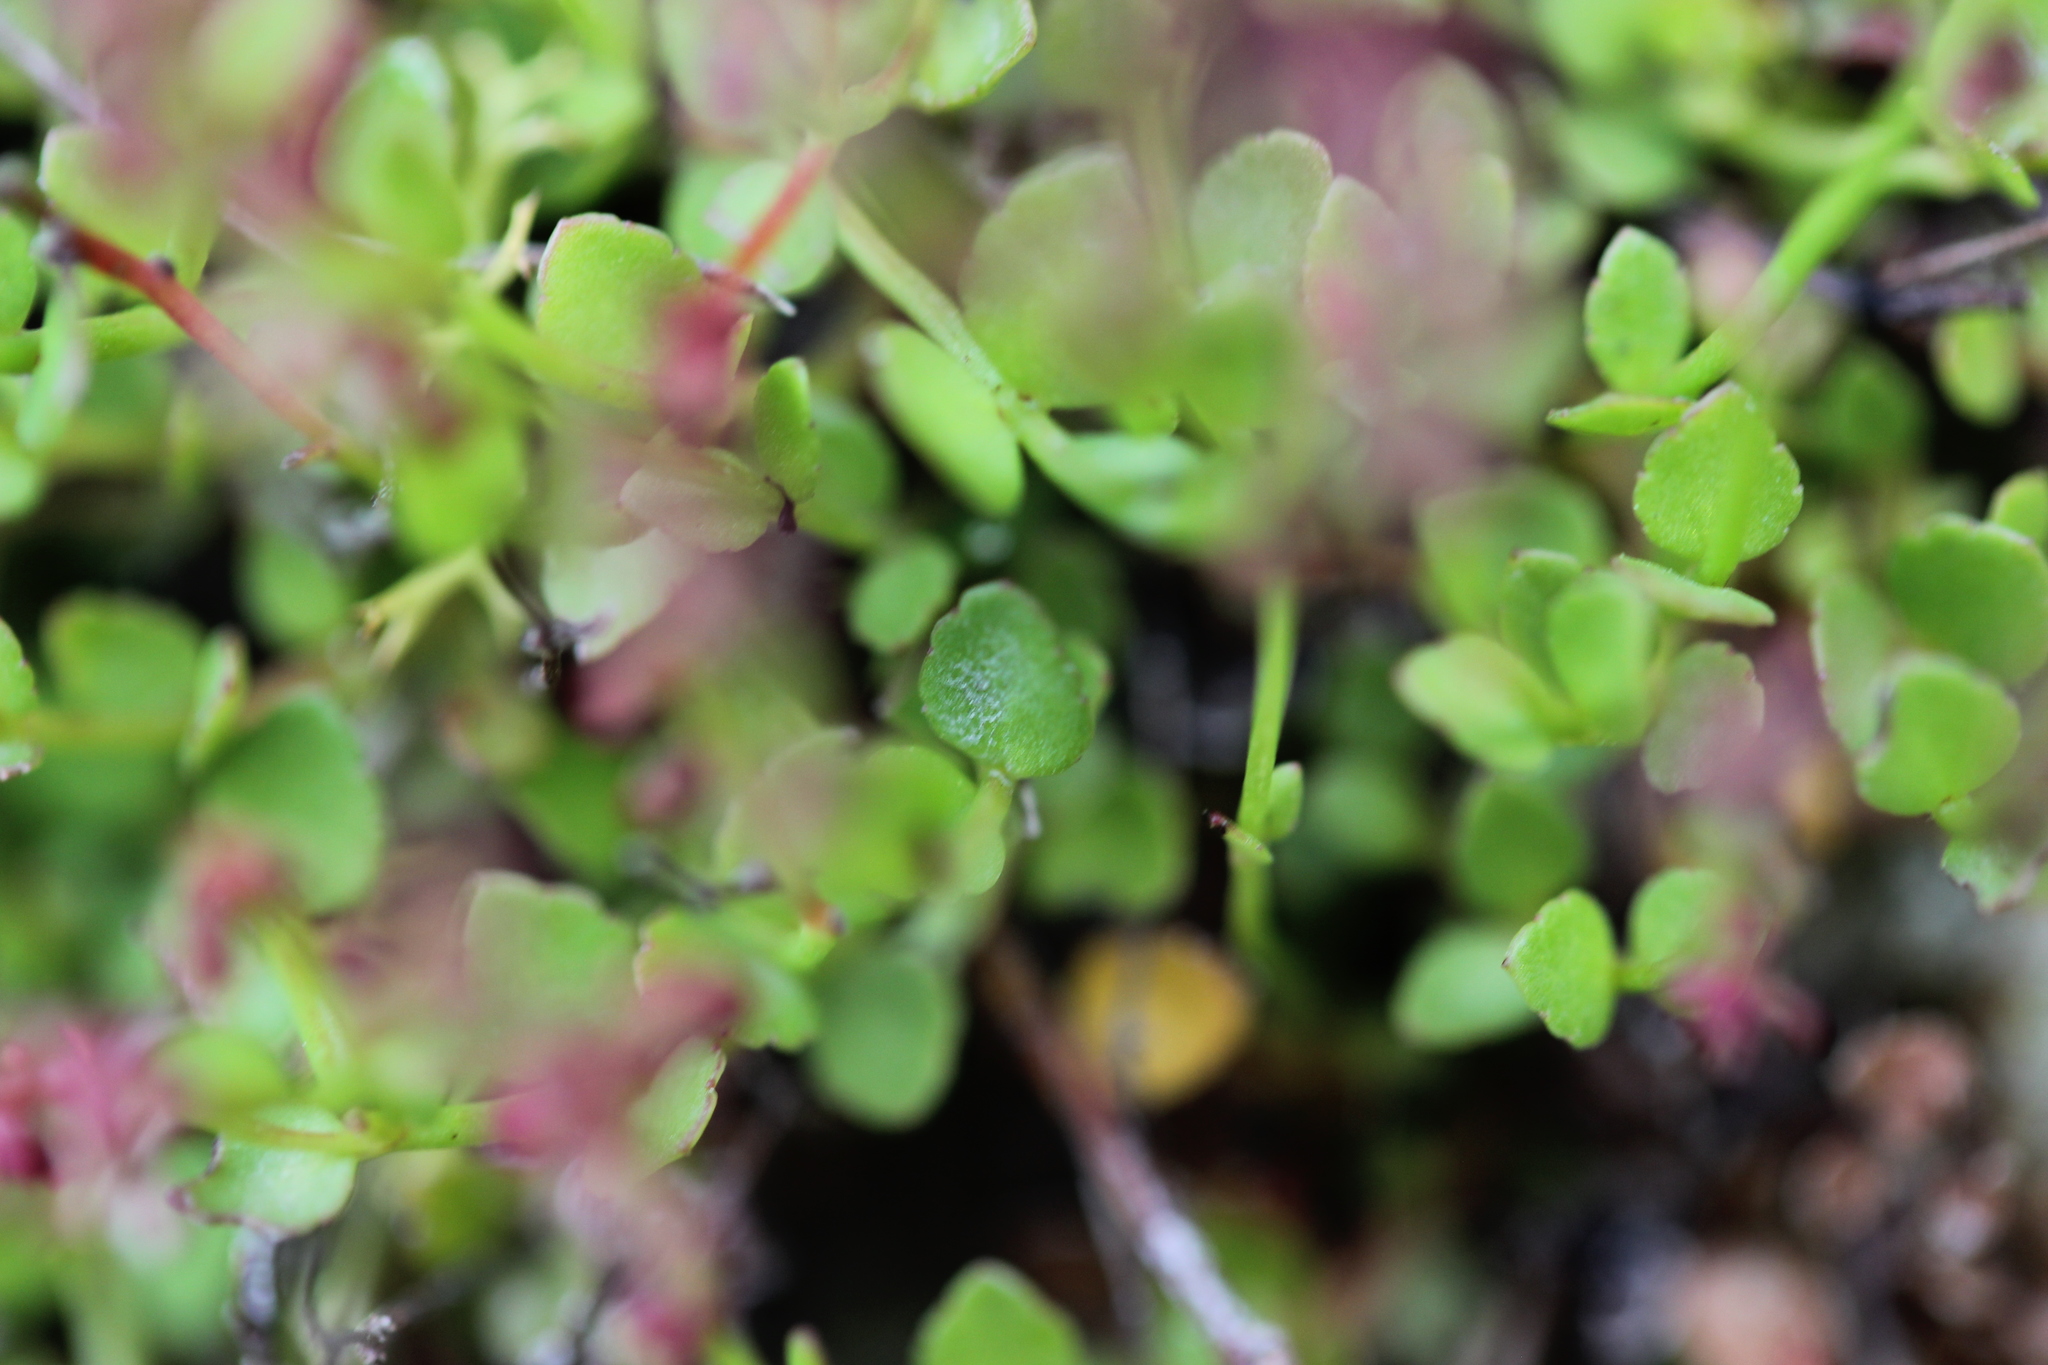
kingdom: Plantae
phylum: Tracheophyta
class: Magnoliopsida
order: Saxifragales
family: Haloragaceae
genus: Gonocarpus
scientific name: Gonocarpus micranthus
